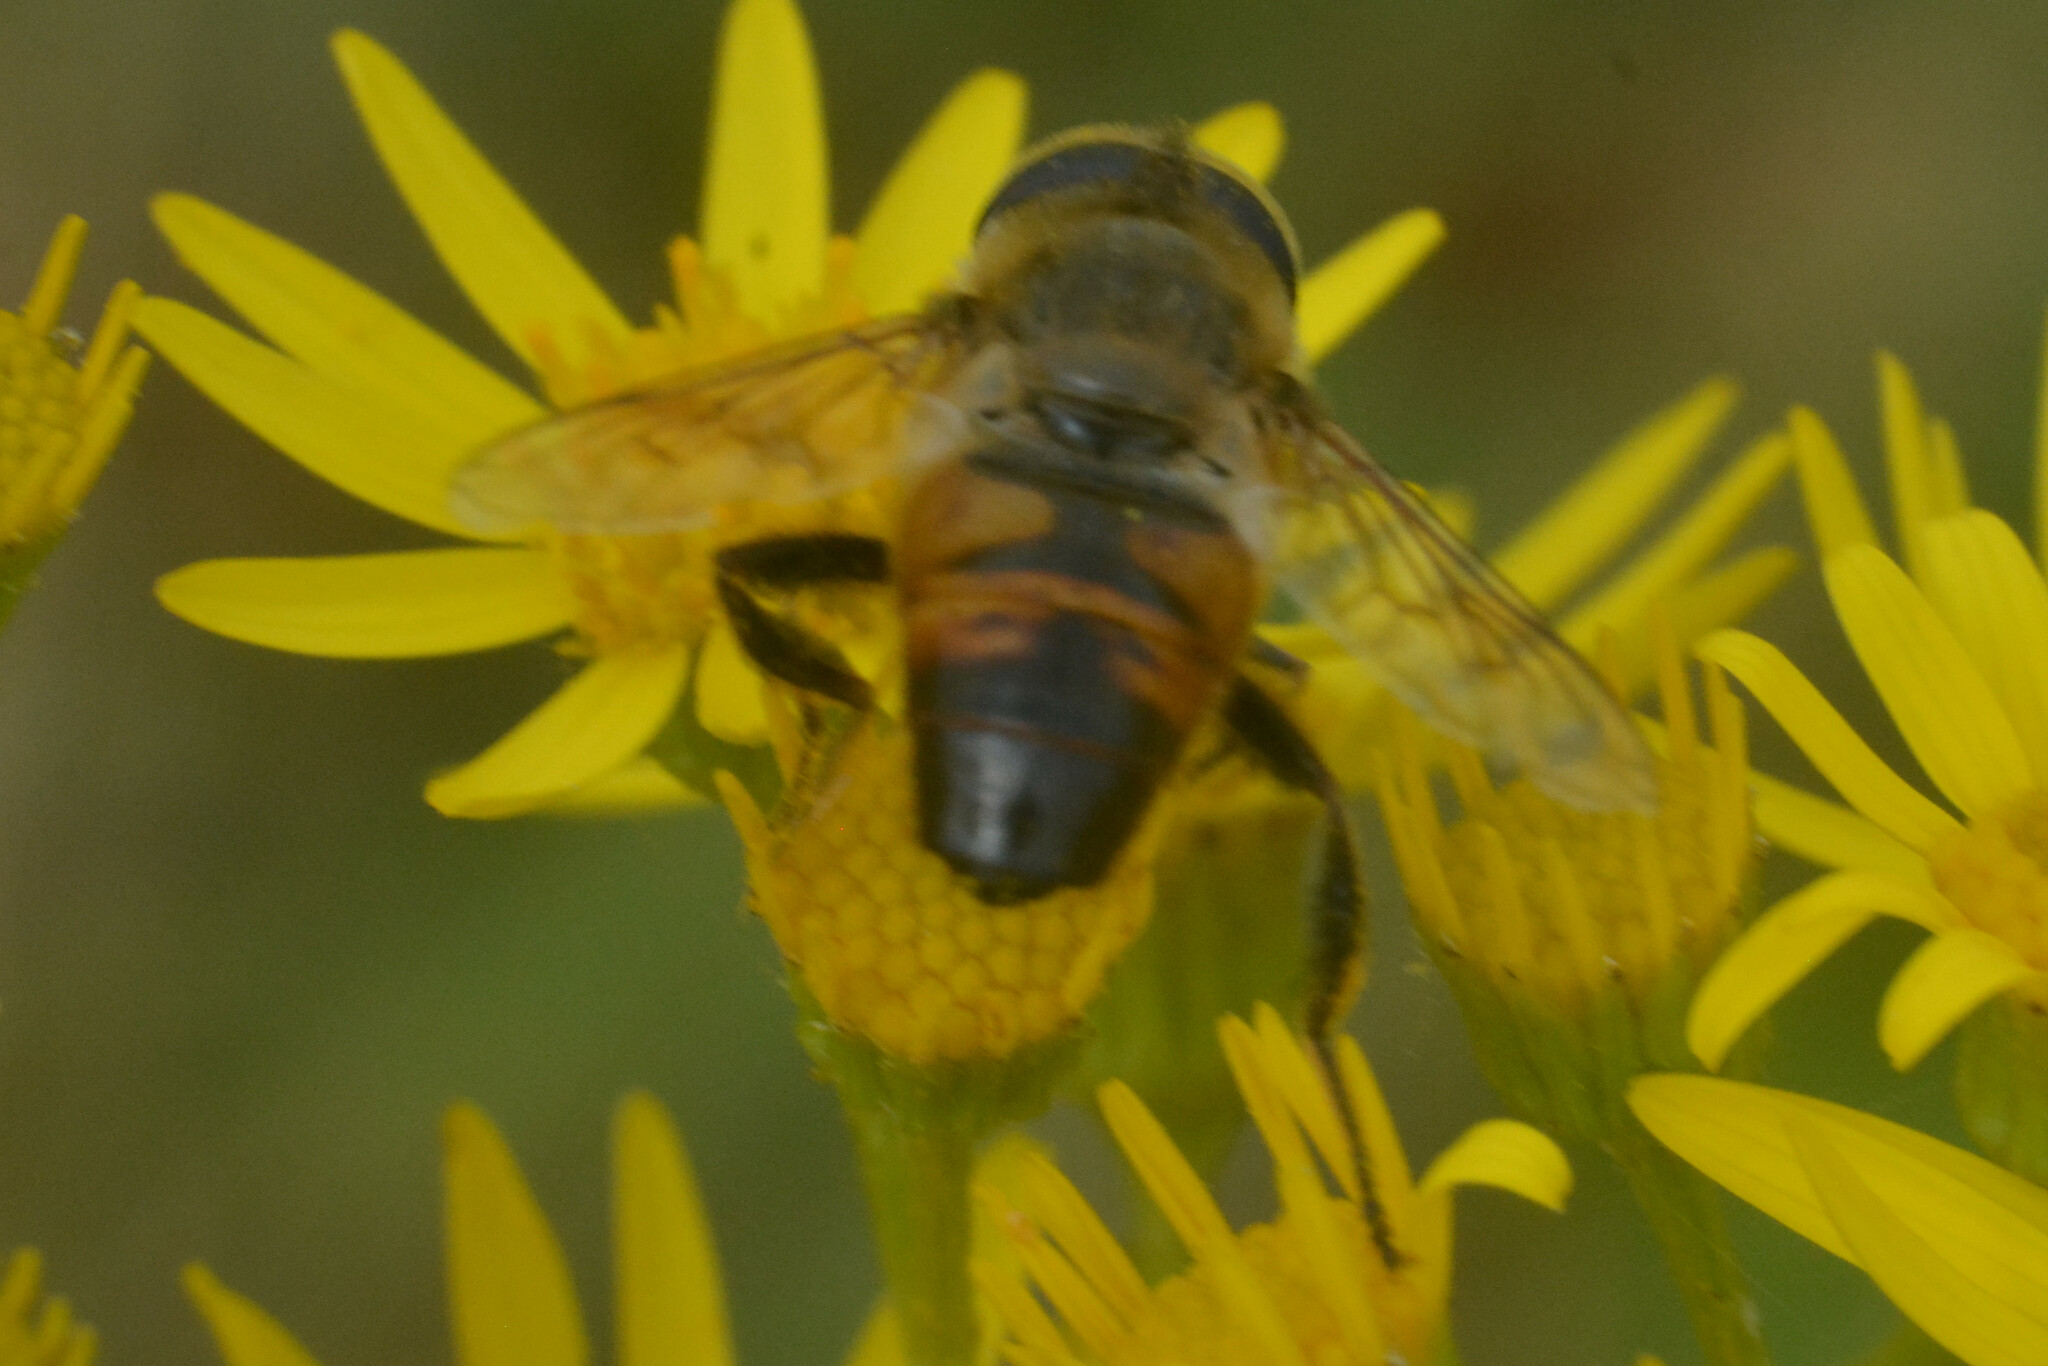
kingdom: Animalia
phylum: Arthropoda
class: Insecta
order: Diptera
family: Syrphidae
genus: Eristalis
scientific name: Eristalis tenax
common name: Drone fly
